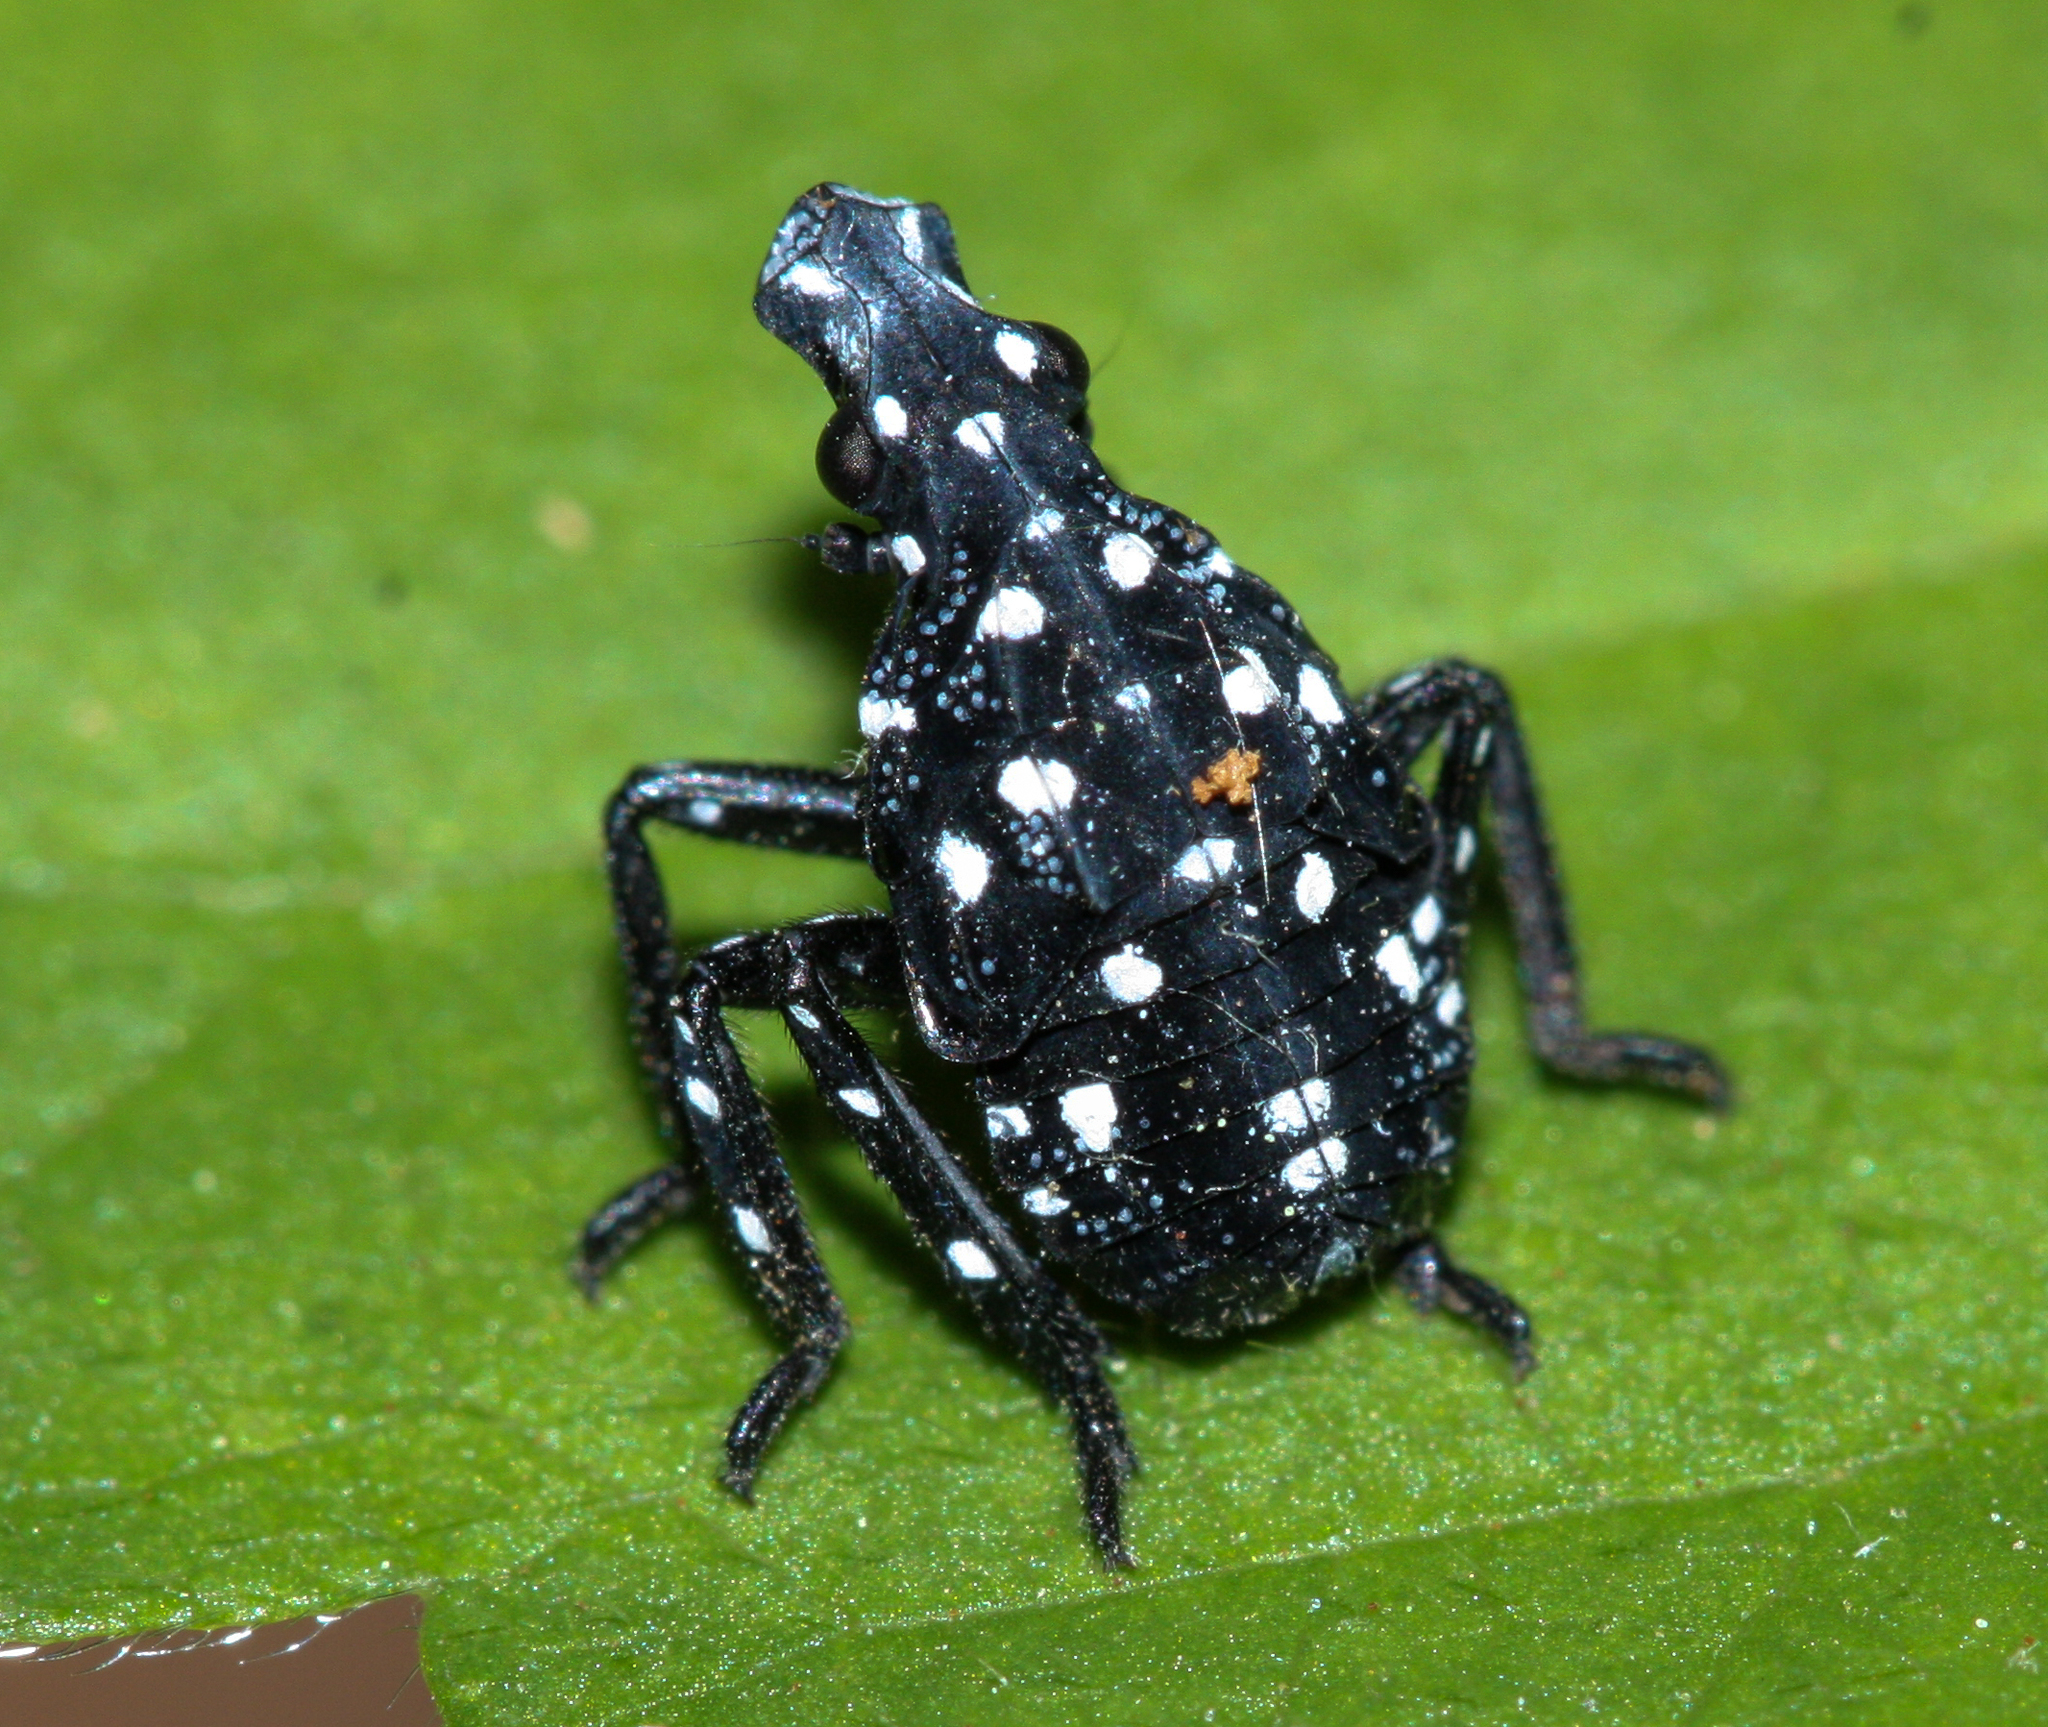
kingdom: Animalia
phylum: Arthropoda
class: Insecta
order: Hemiptera
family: Fulgoridae
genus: Lycorma
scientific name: Lycorma delicatula
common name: Spotted lanternfly
